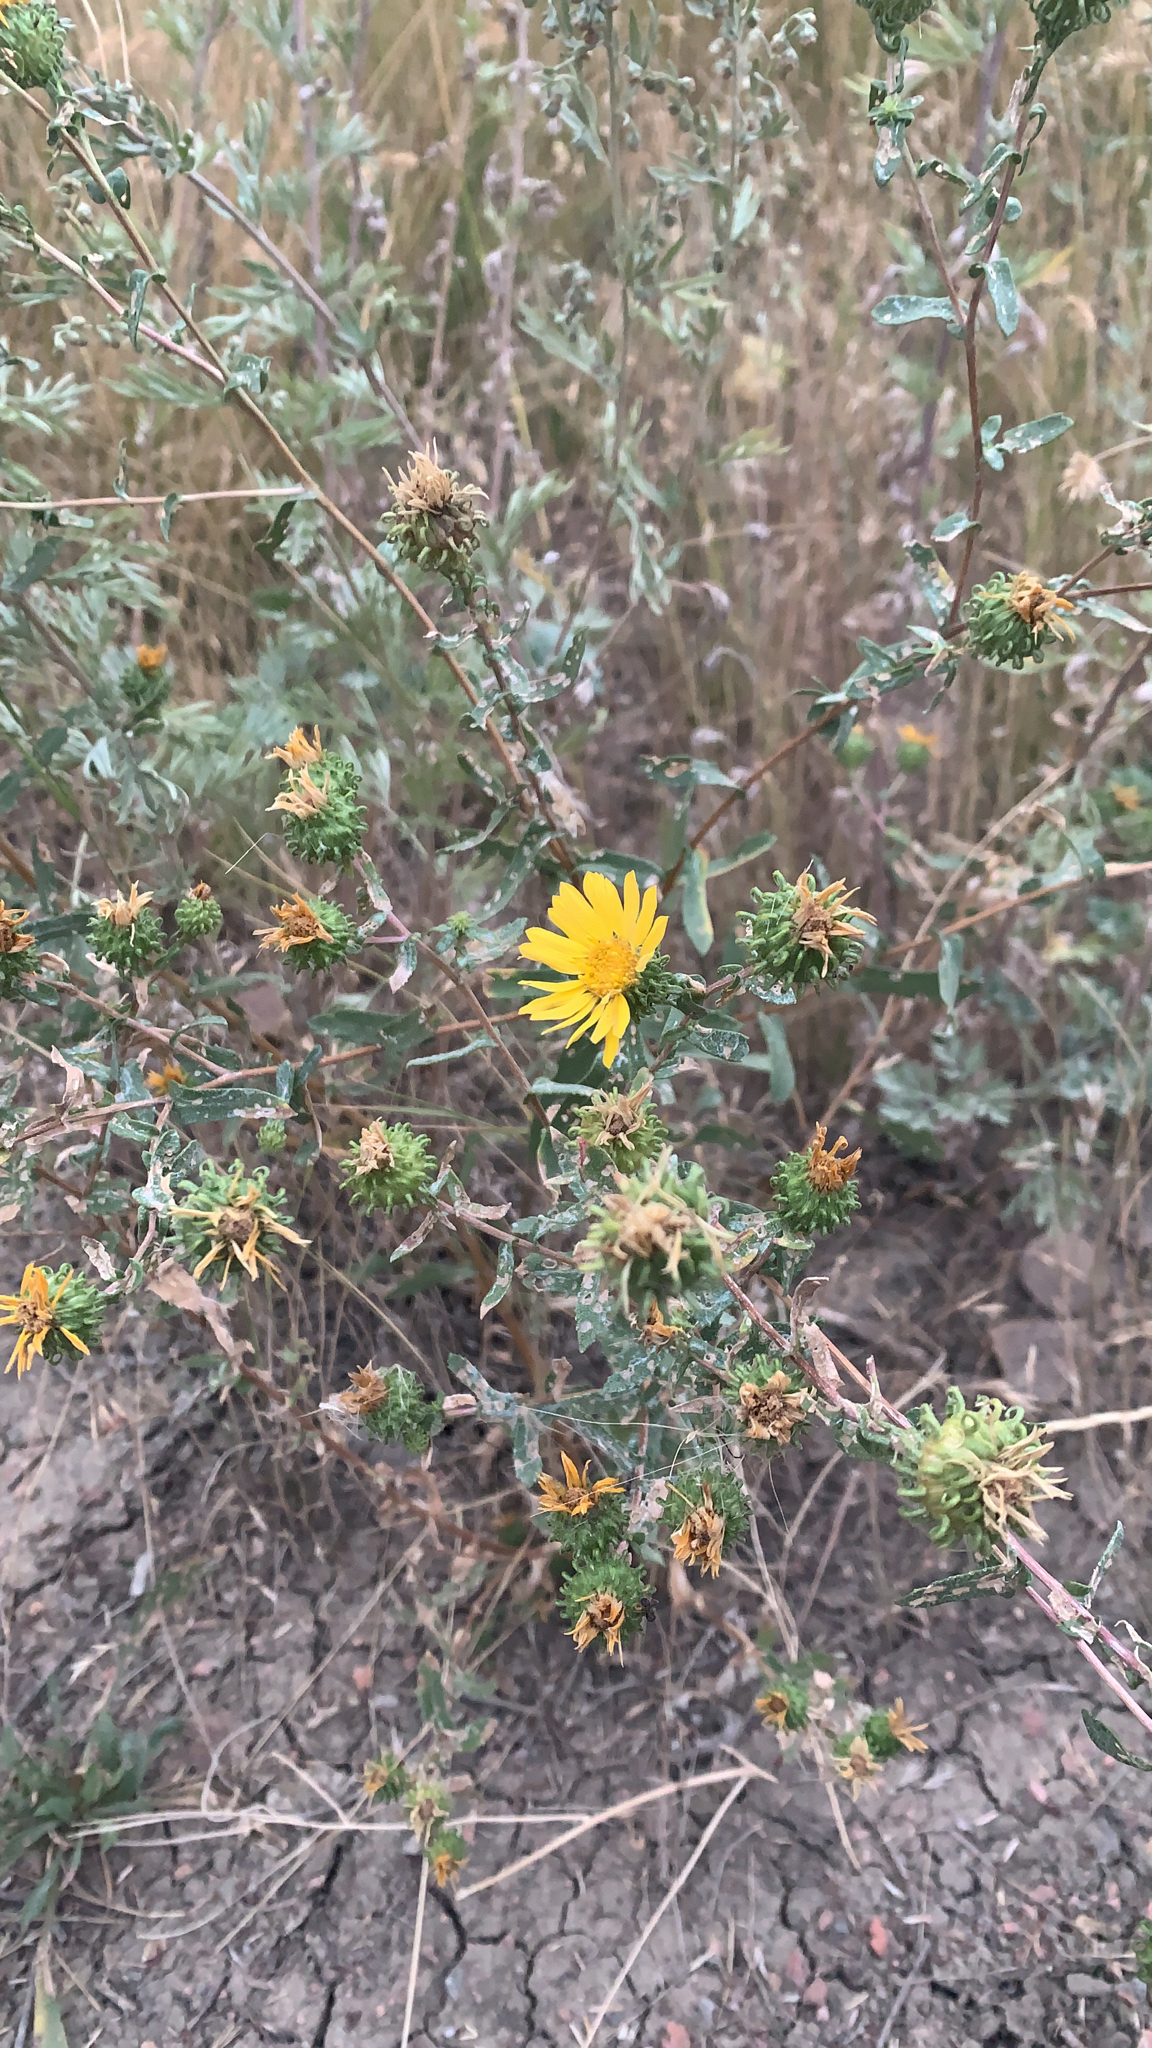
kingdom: Plantae
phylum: Tracheophyta
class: Magnoliopsida
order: Asterales
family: Asteraceae
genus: Grindelia
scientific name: Grindelia squarrosa
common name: Curly-cup gumweed
